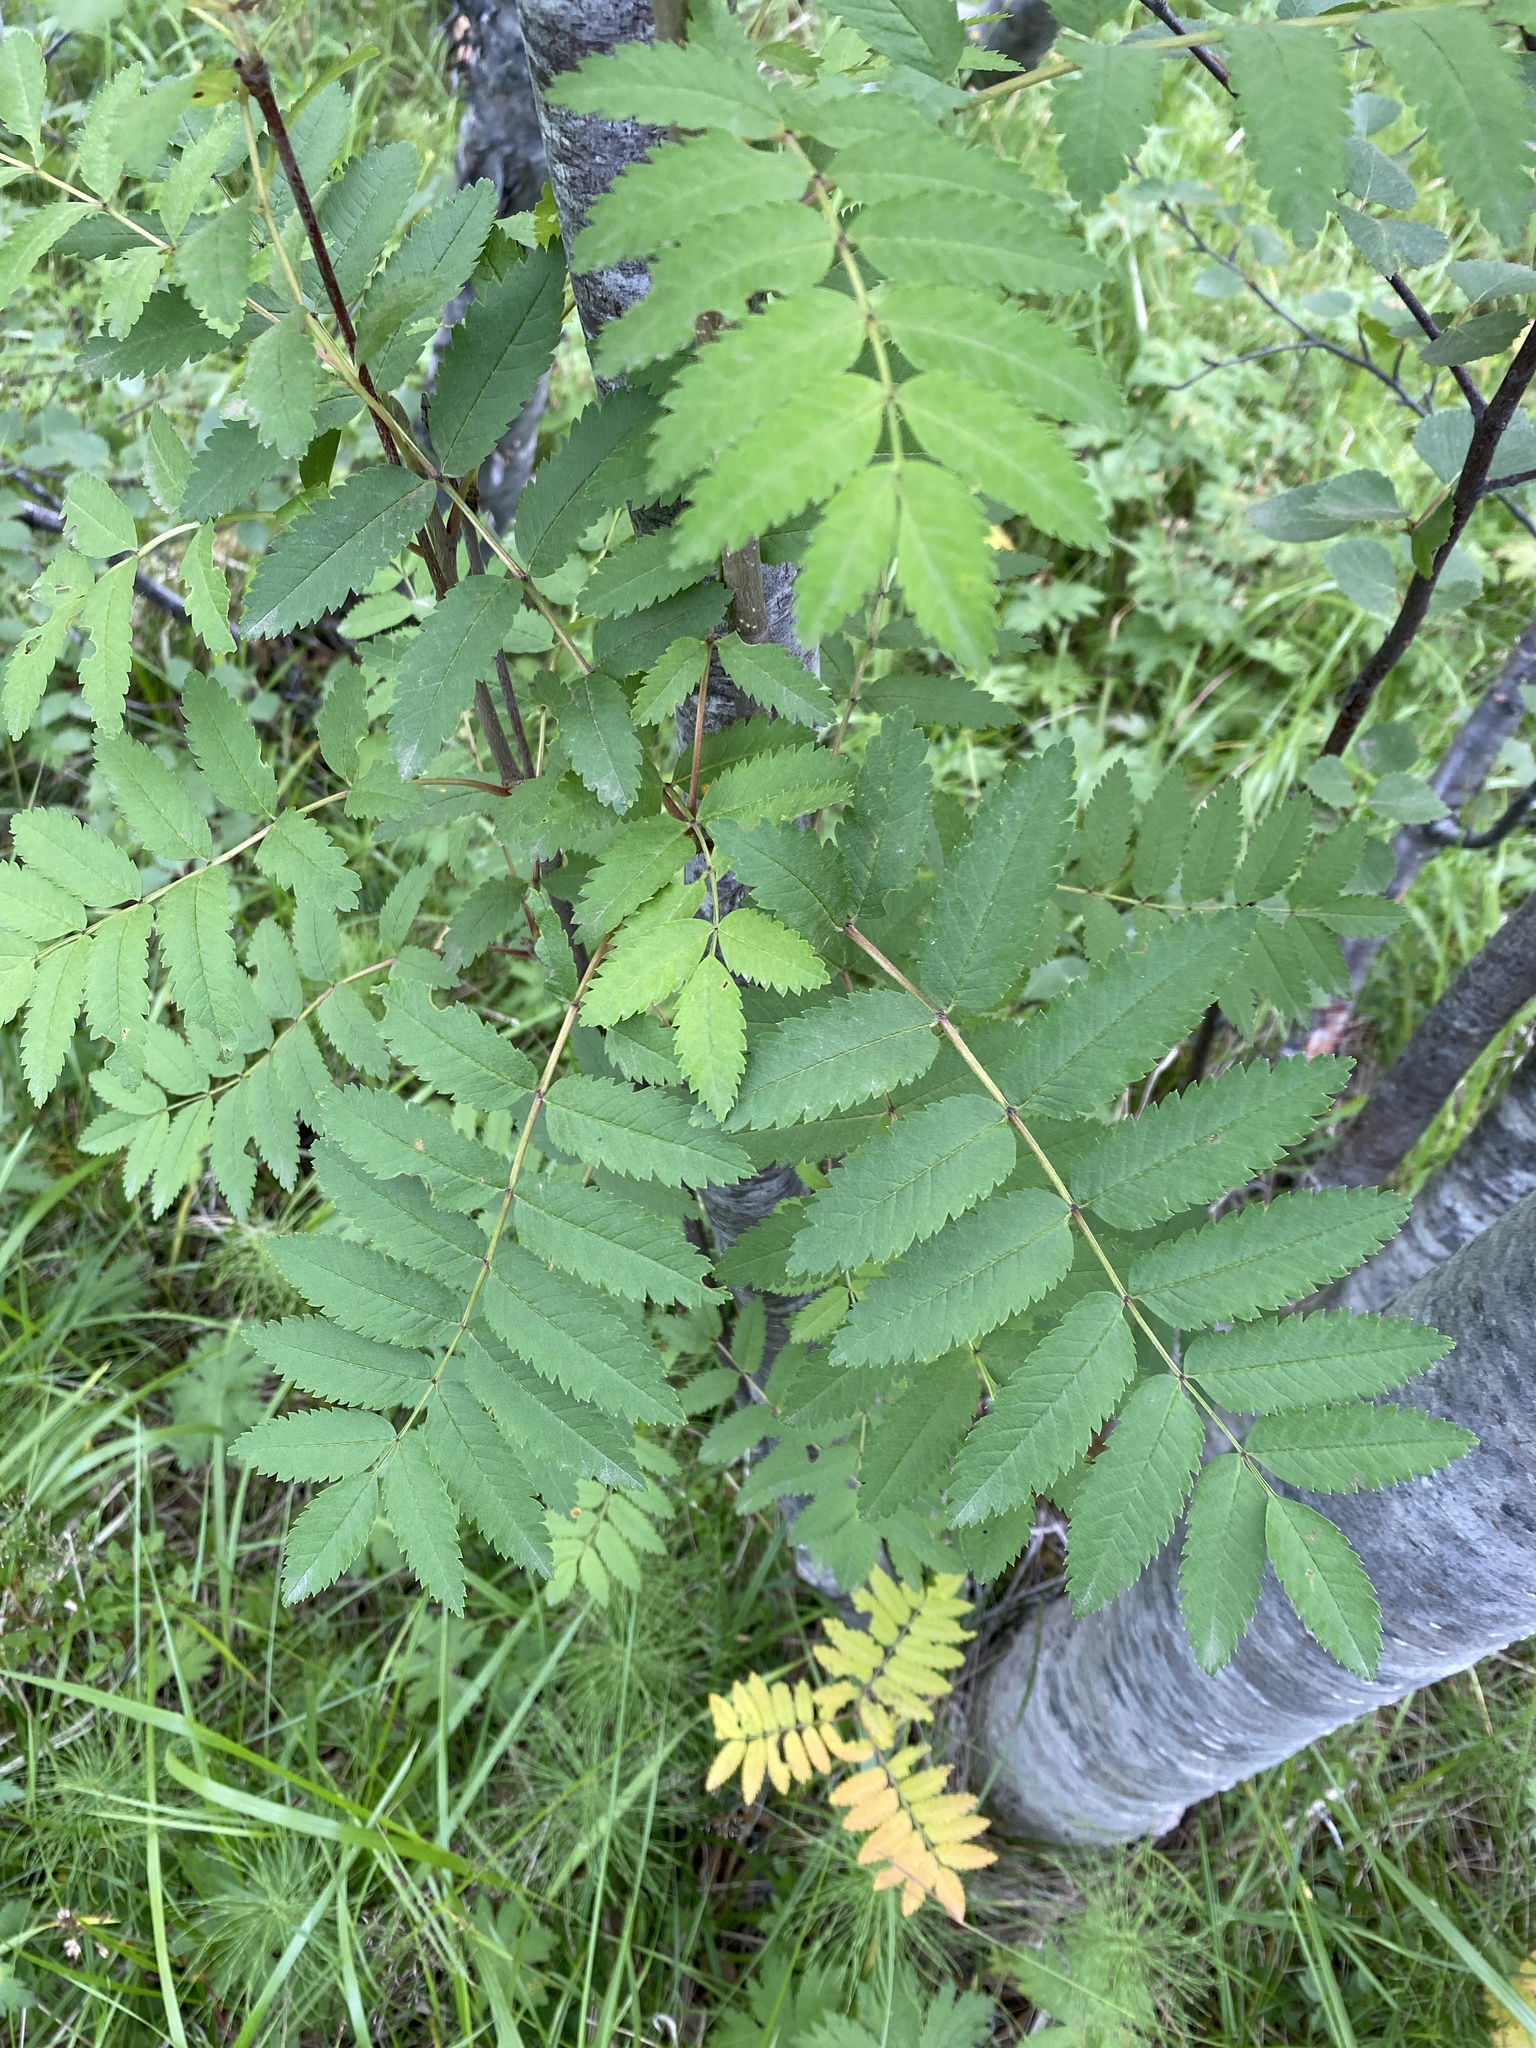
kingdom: Plantae
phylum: Tracheophyta
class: Magnoliopsida
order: Rosales
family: Rosaceae
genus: Sorbus
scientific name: Sorbus aucuparia
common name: Rowan
